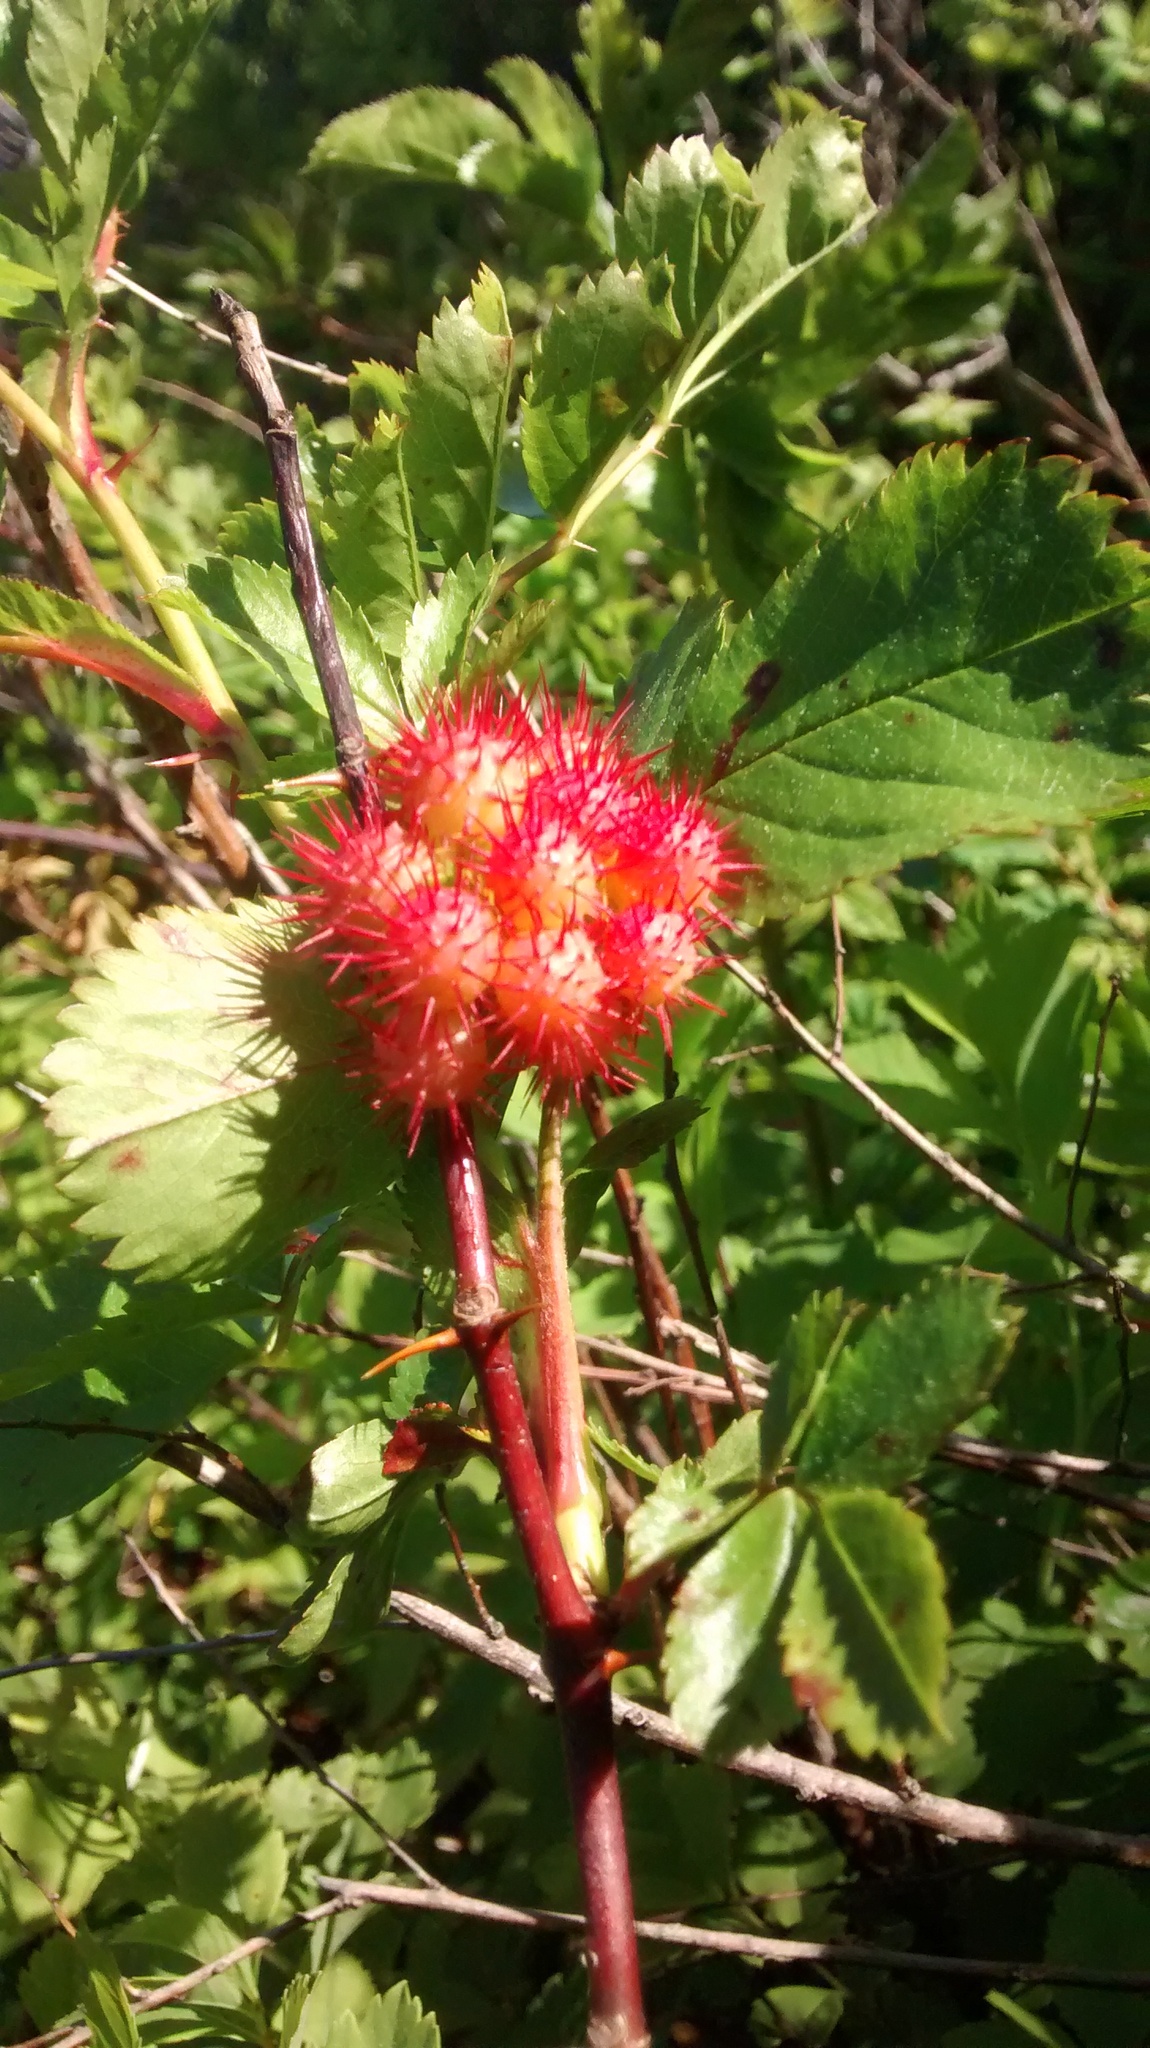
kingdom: Animalia
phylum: Arthropoda
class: Insecta
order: Hymenoptera
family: Cynipidae
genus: Diplolepis
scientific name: Diplolepis bicolor
